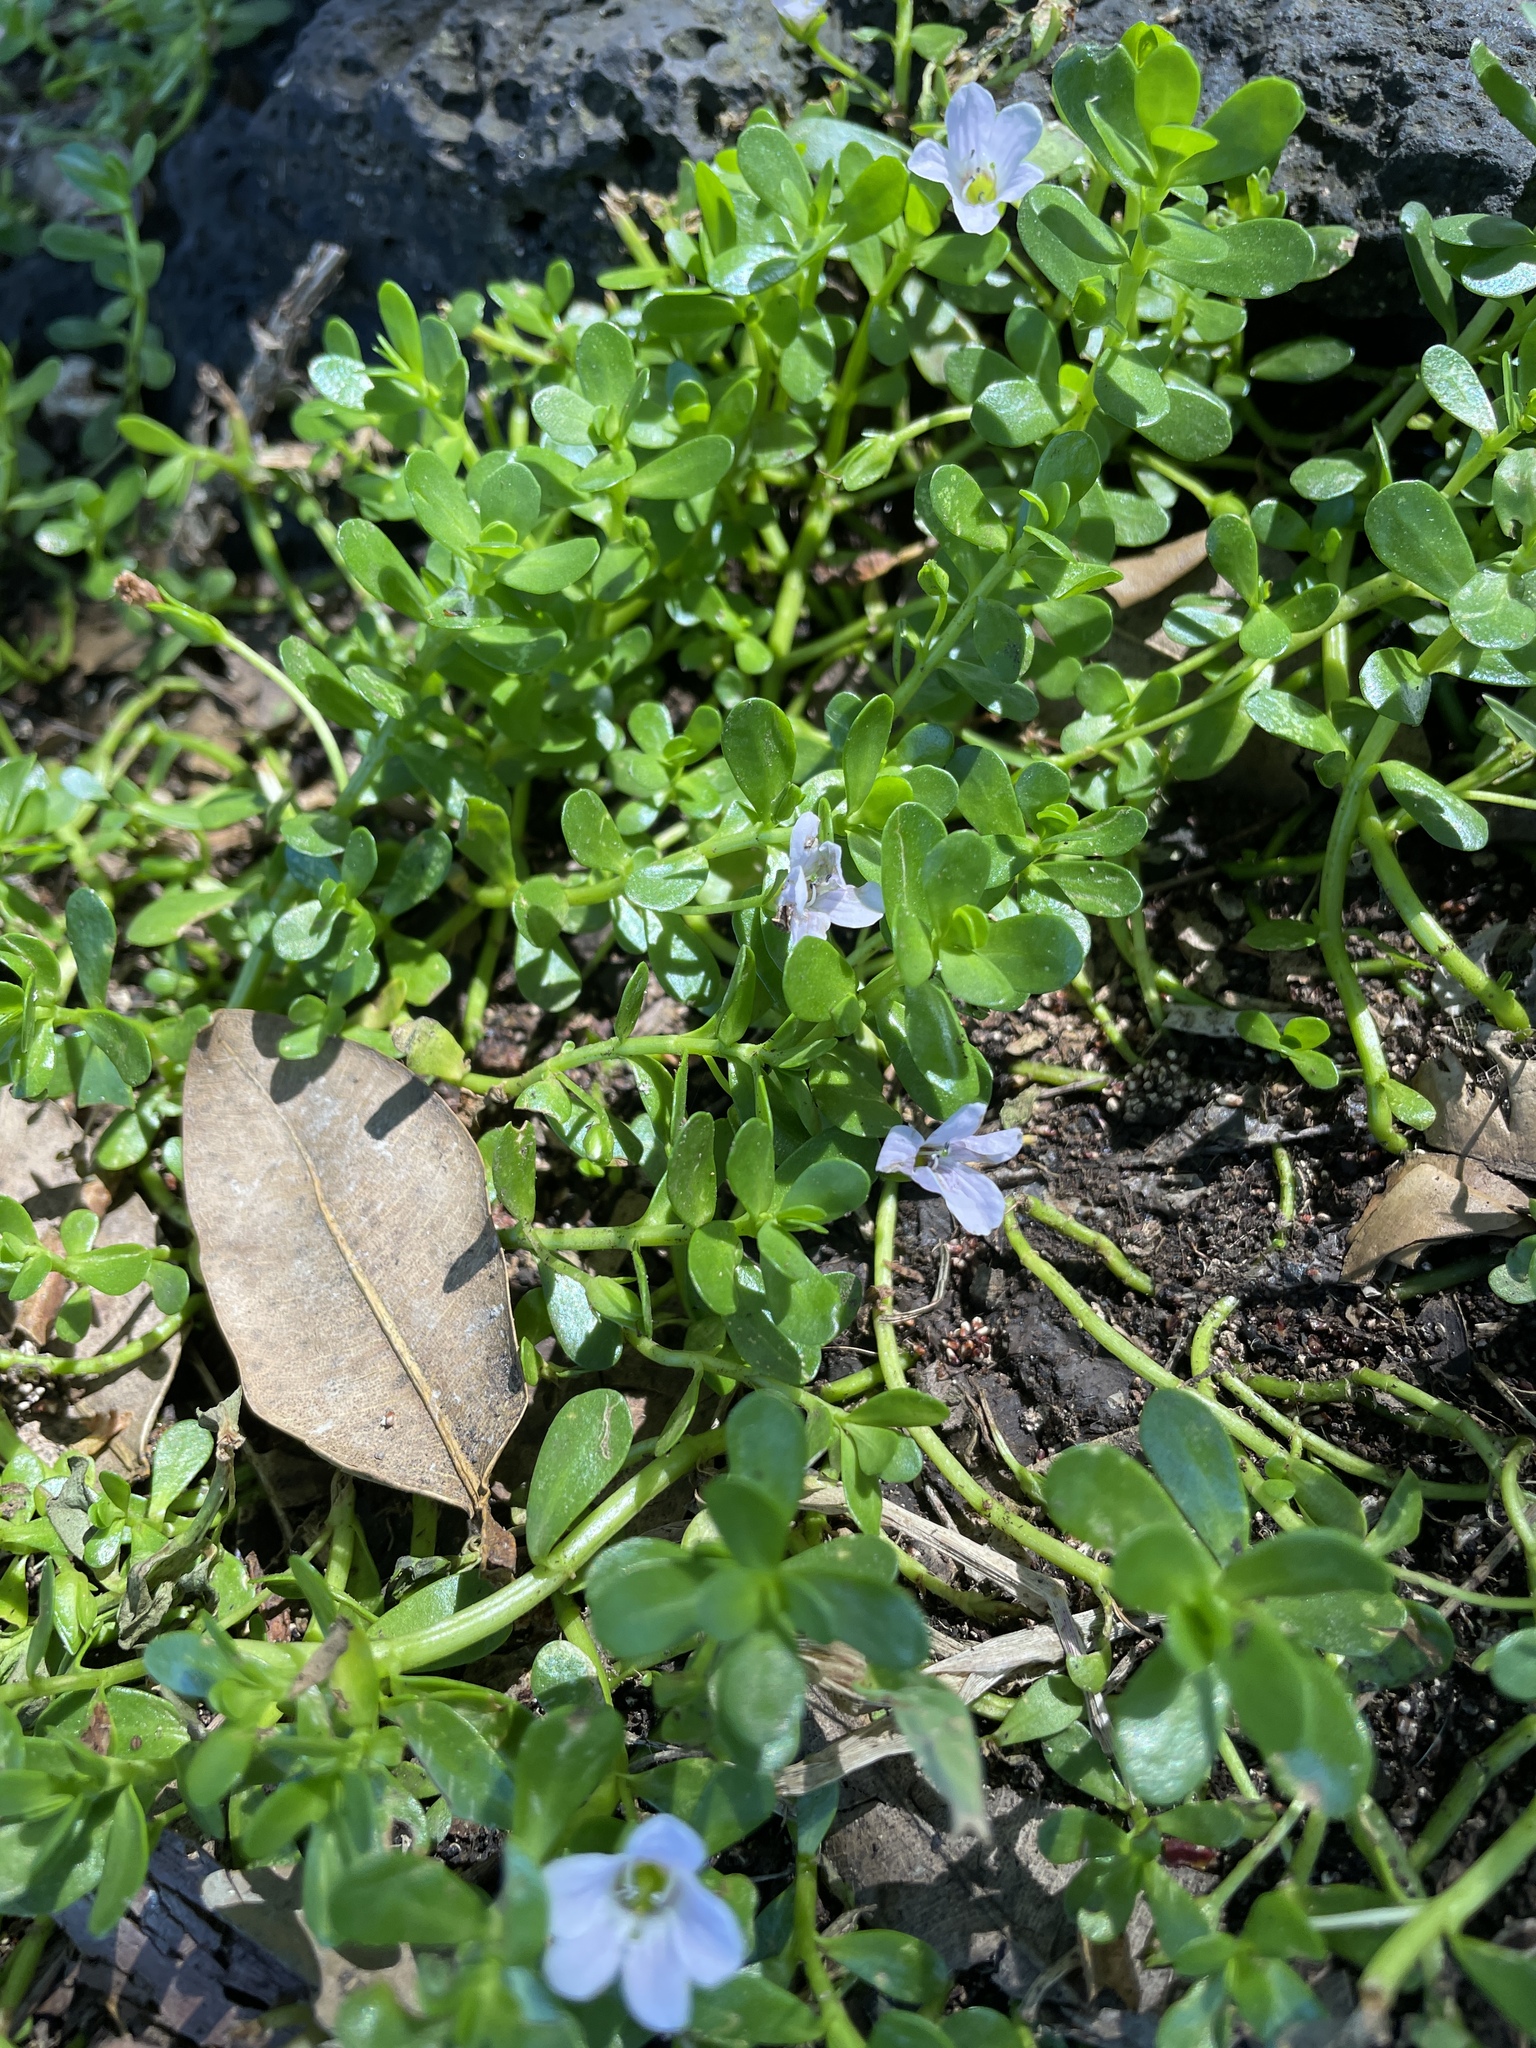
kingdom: Plantae
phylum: Tracheophyta
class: Magnoliopsida
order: Lamiales
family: Plantaginaceae
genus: Bacopa
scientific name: Bacopa monnieri
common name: Indian-pennywort
